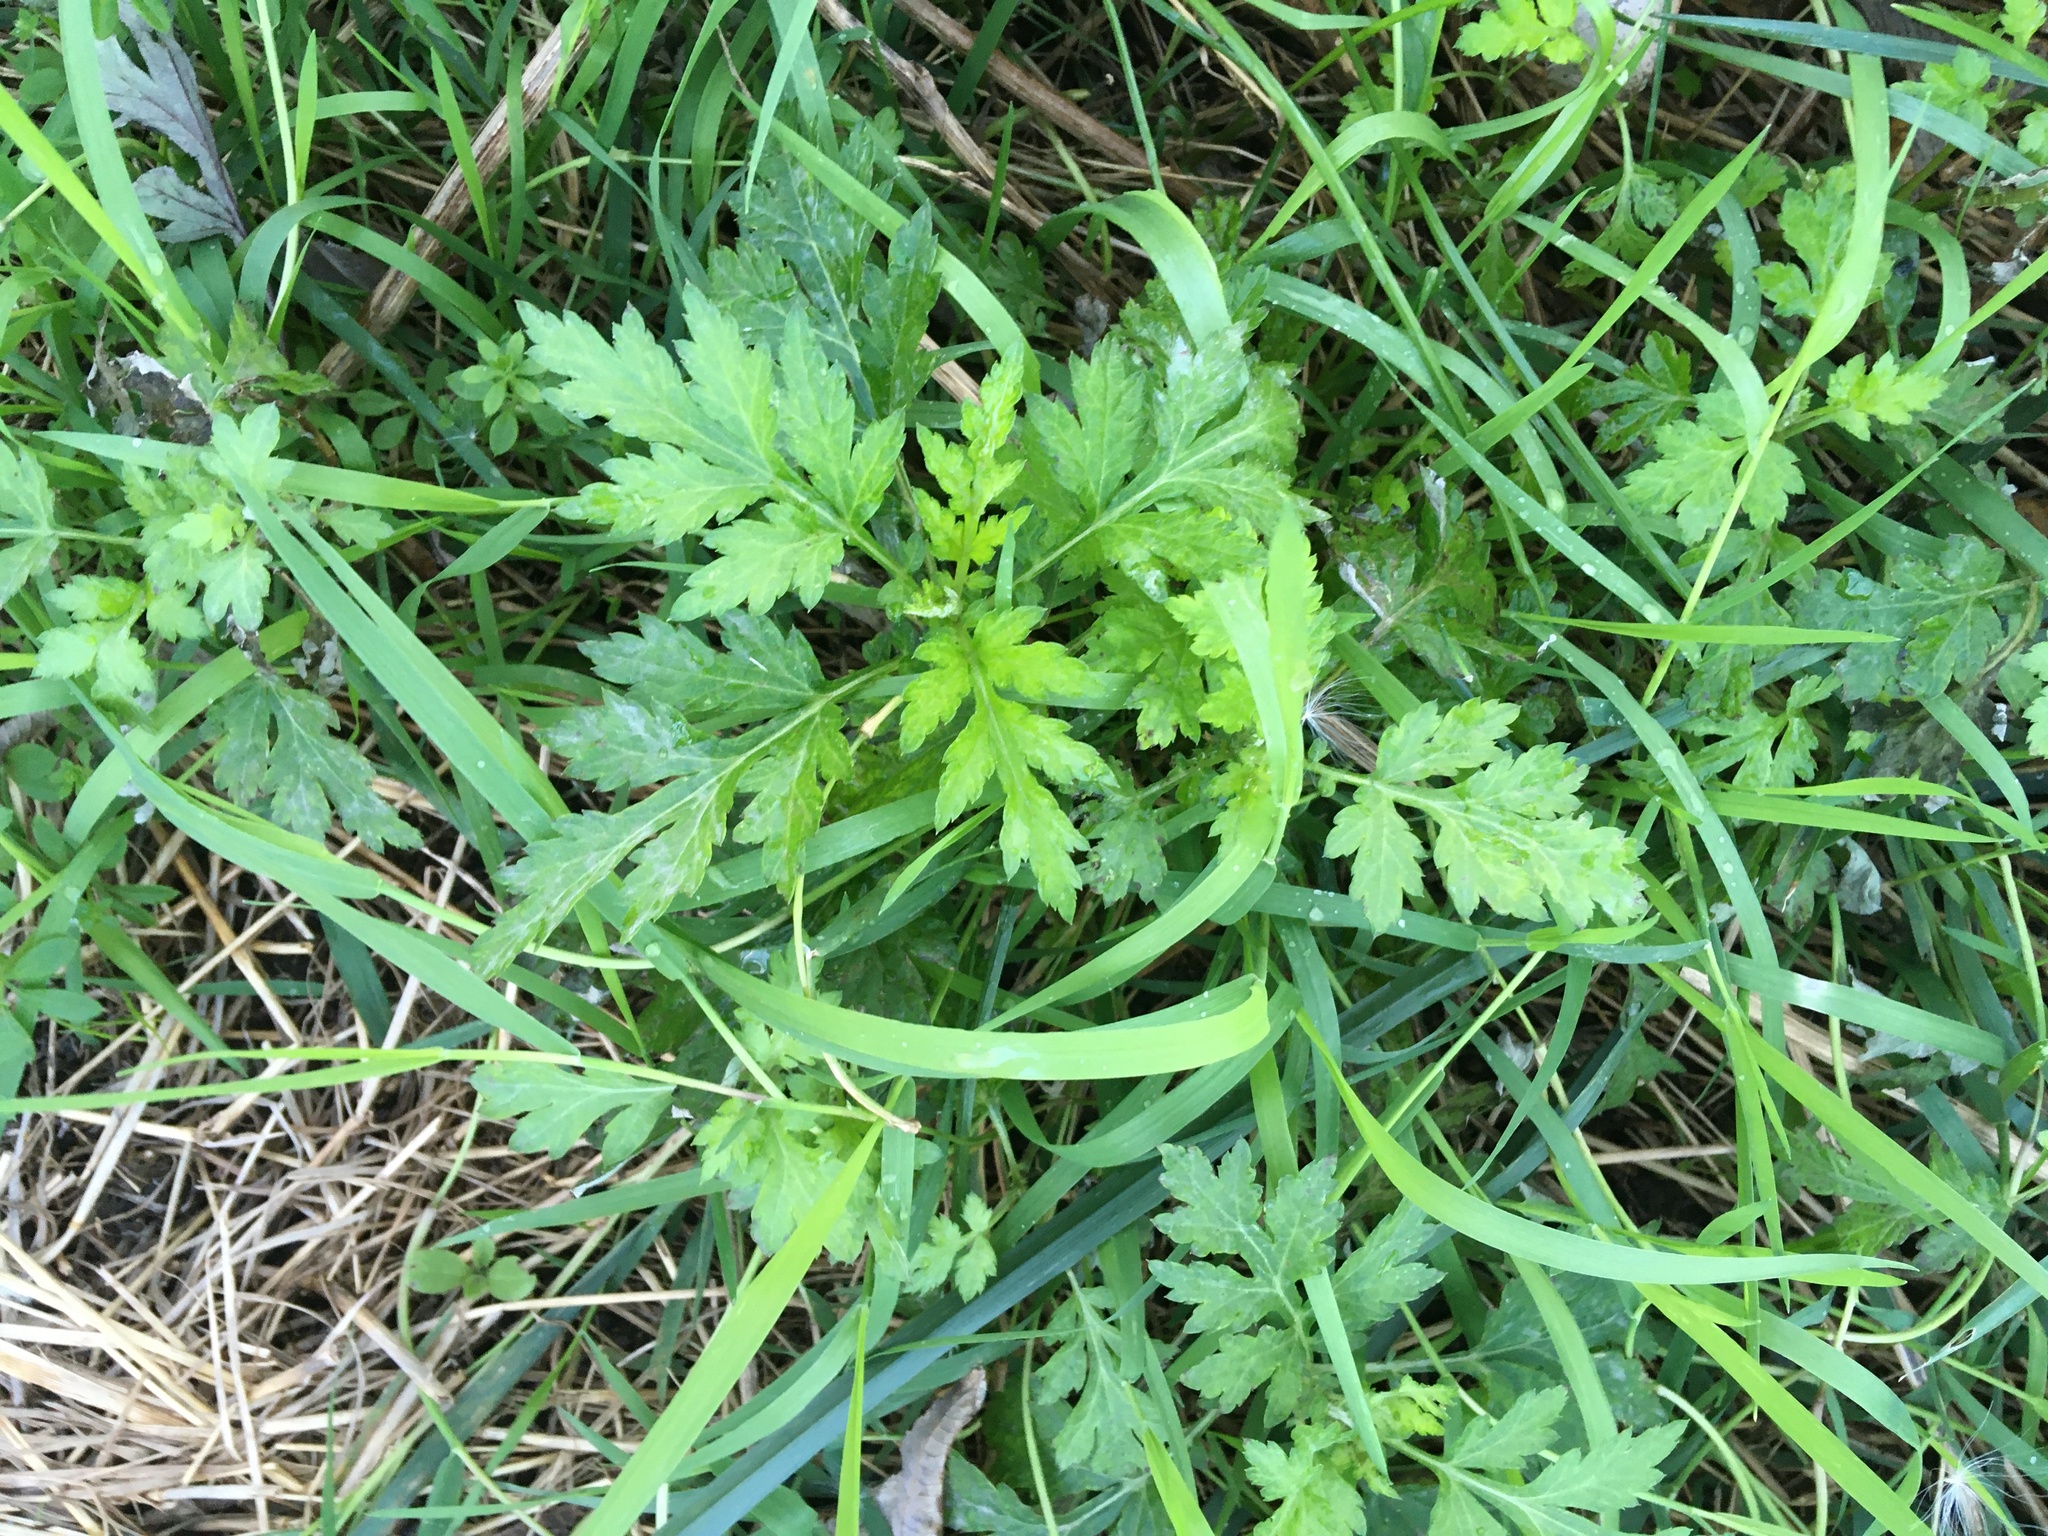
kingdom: Plantae
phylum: Tracheophyta
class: Magnoliopsida
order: Asterales
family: Asteraceae
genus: Artemisia
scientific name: Artemisia vulgaris
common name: Mugwort
